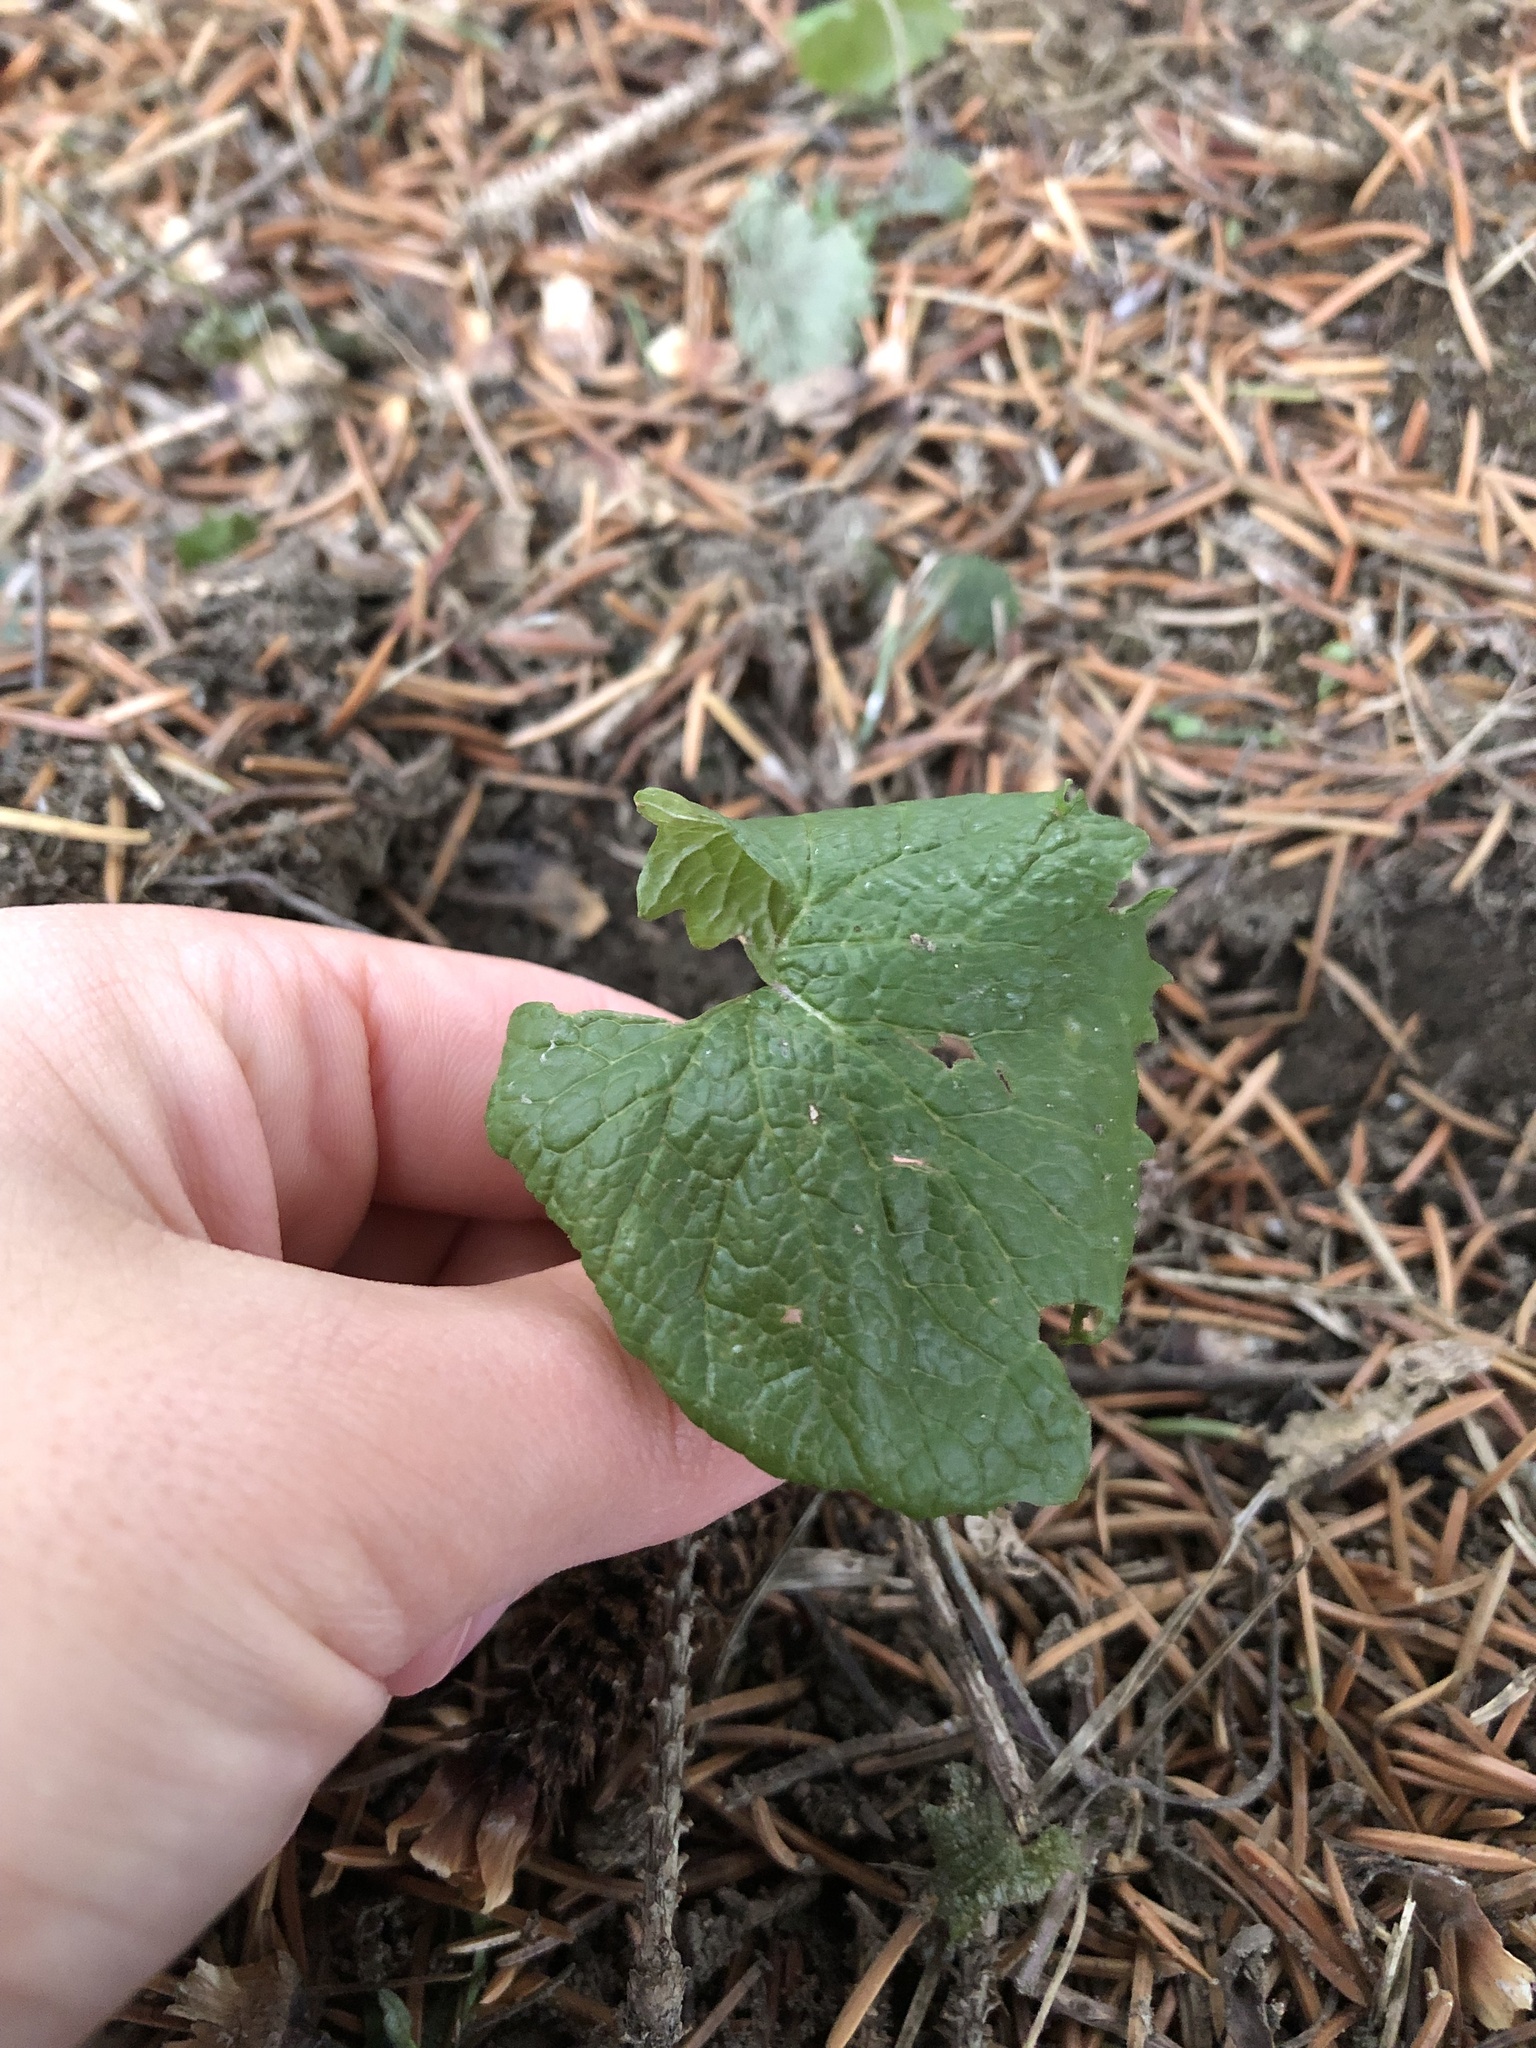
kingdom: Plantae
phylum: Tracheophyta
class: Magnoliopsida
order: Brassicales
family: Brassicaceae
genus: Alliaria
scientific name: Alliaria petiolata
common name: Garlic mustard
